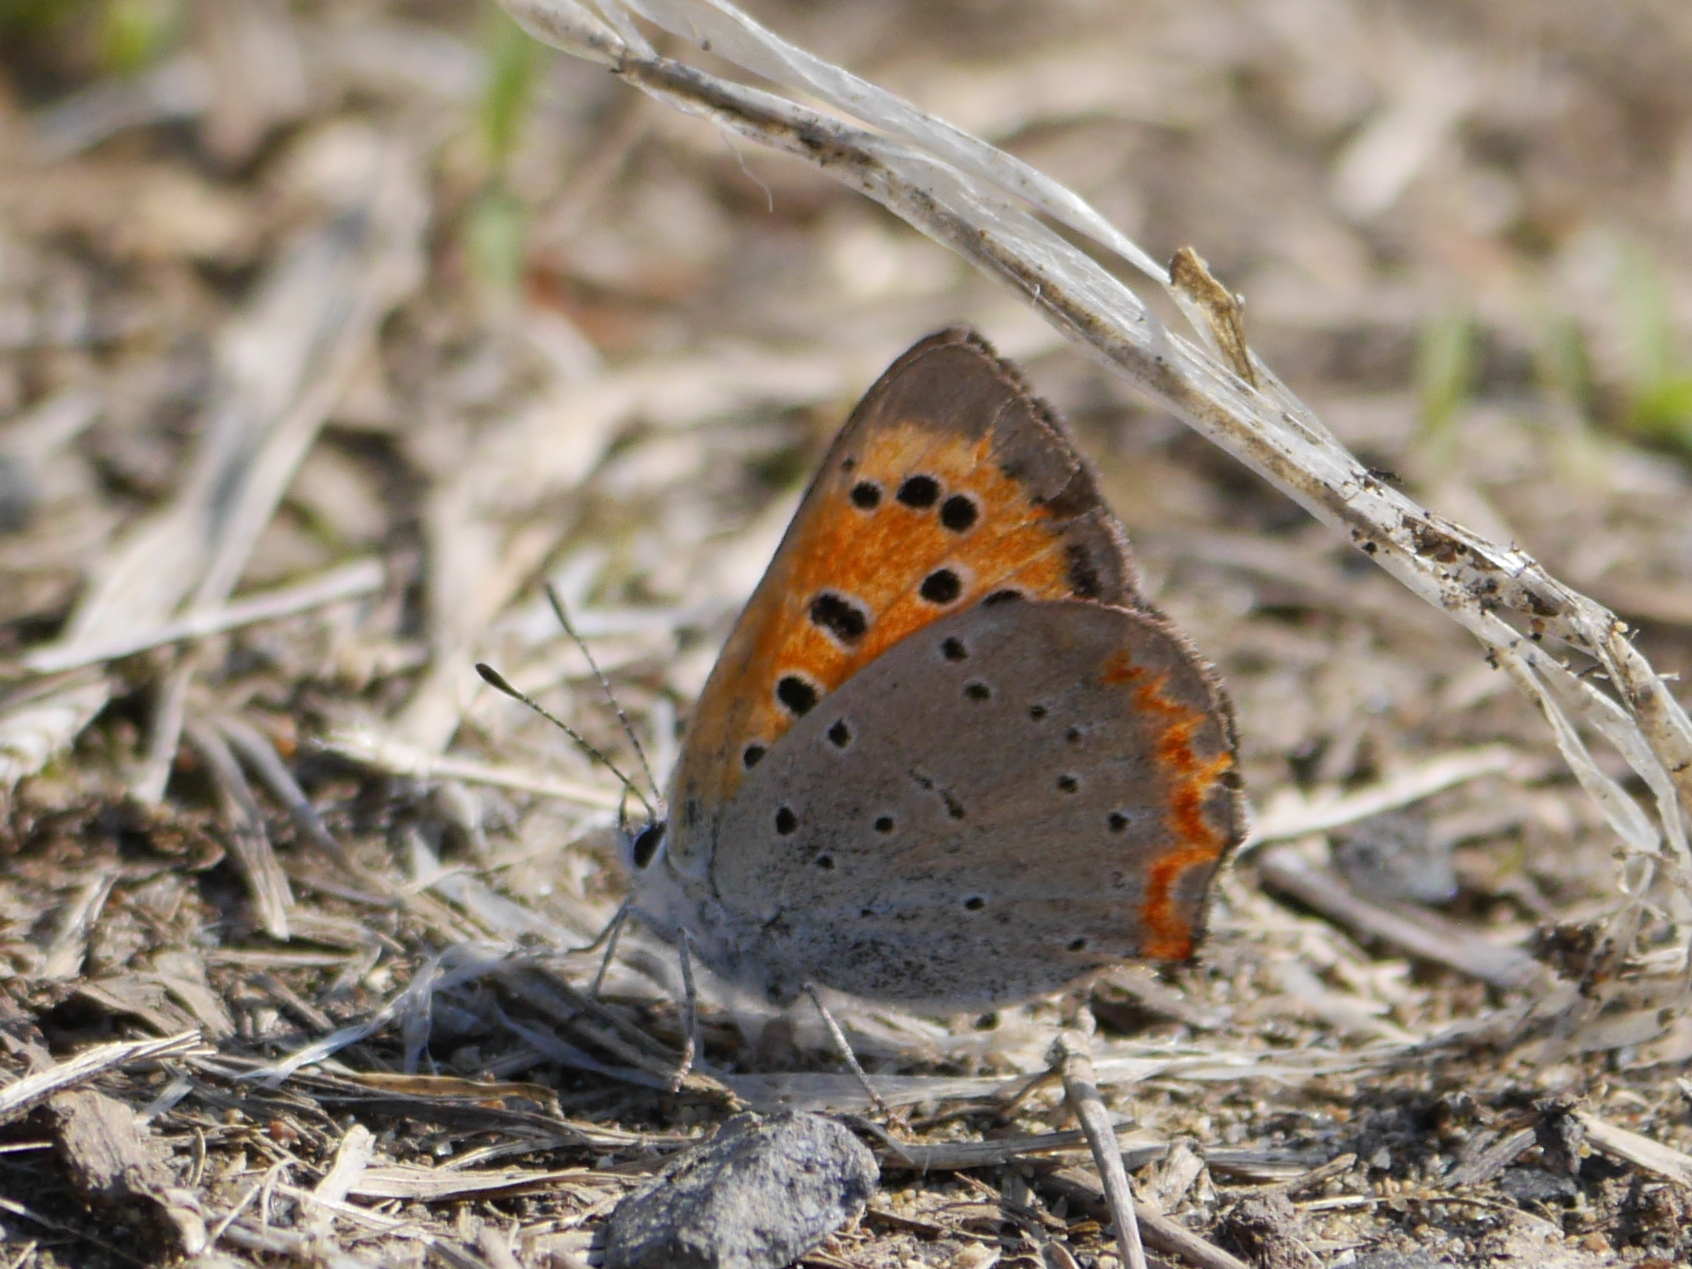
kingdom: Animalia
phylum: Arthropoda
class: Insecta
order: Lepidoptera
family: Lycaenidae
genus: Lycaena
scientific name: Lycaena phlaeas
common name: Small copper
